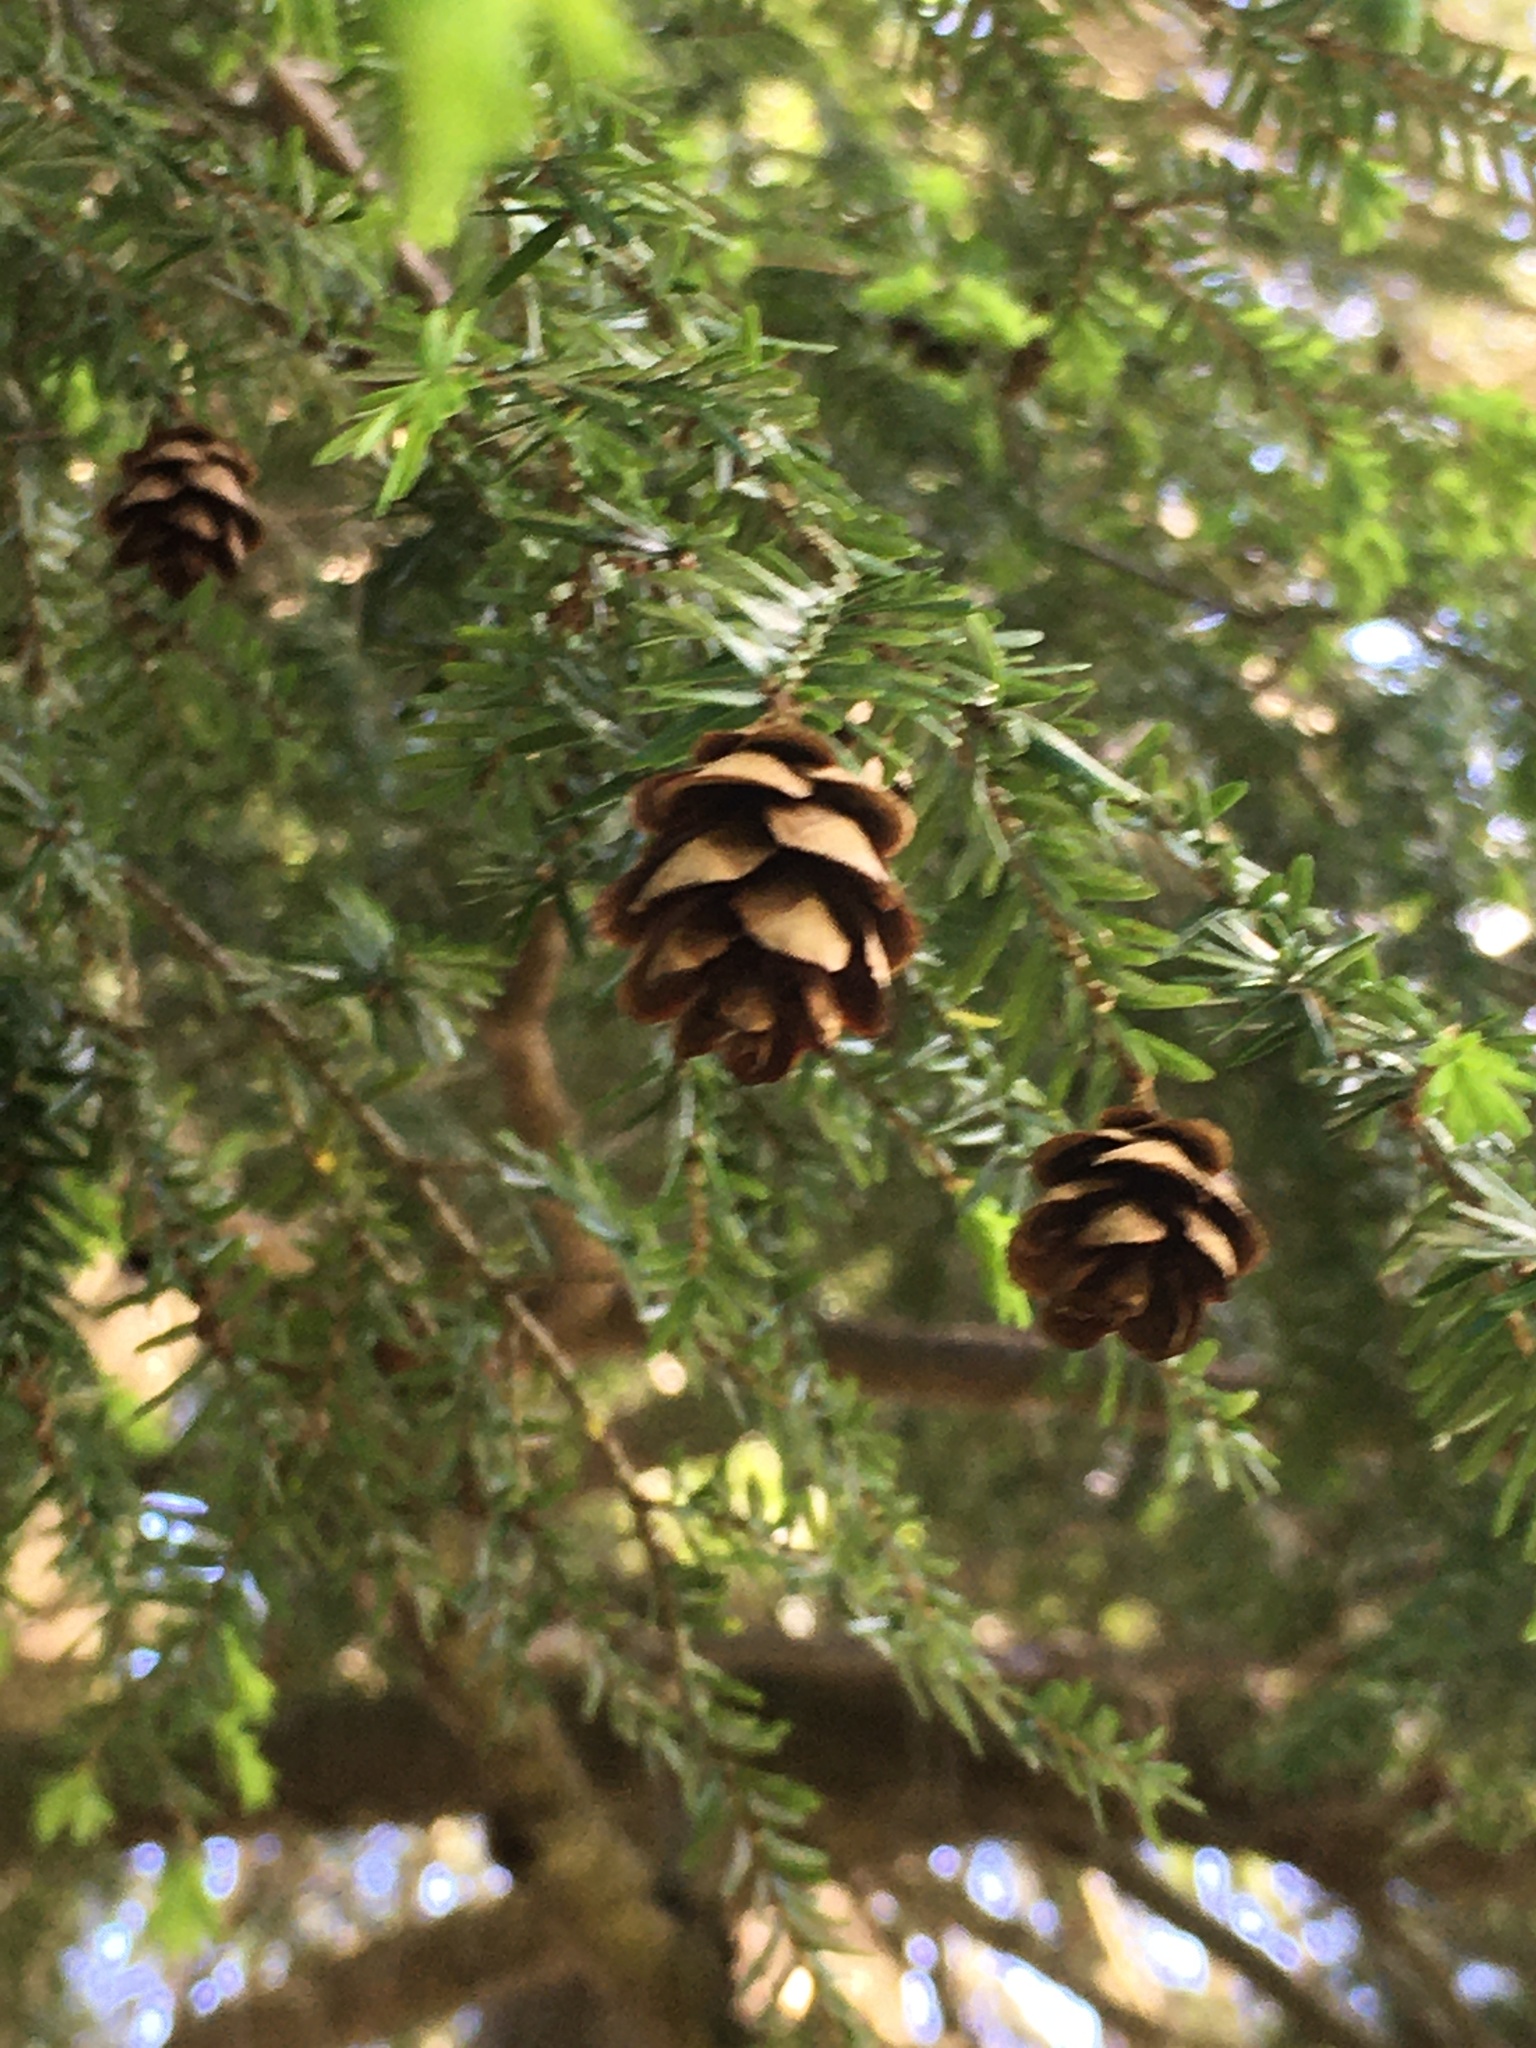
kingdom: Plantae
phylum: Tracheophyta
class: Pinopsida
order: Pinales
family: Pinaceae
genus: Tsuga
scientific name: Tsuga canadensis
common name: Eastern hemlock
